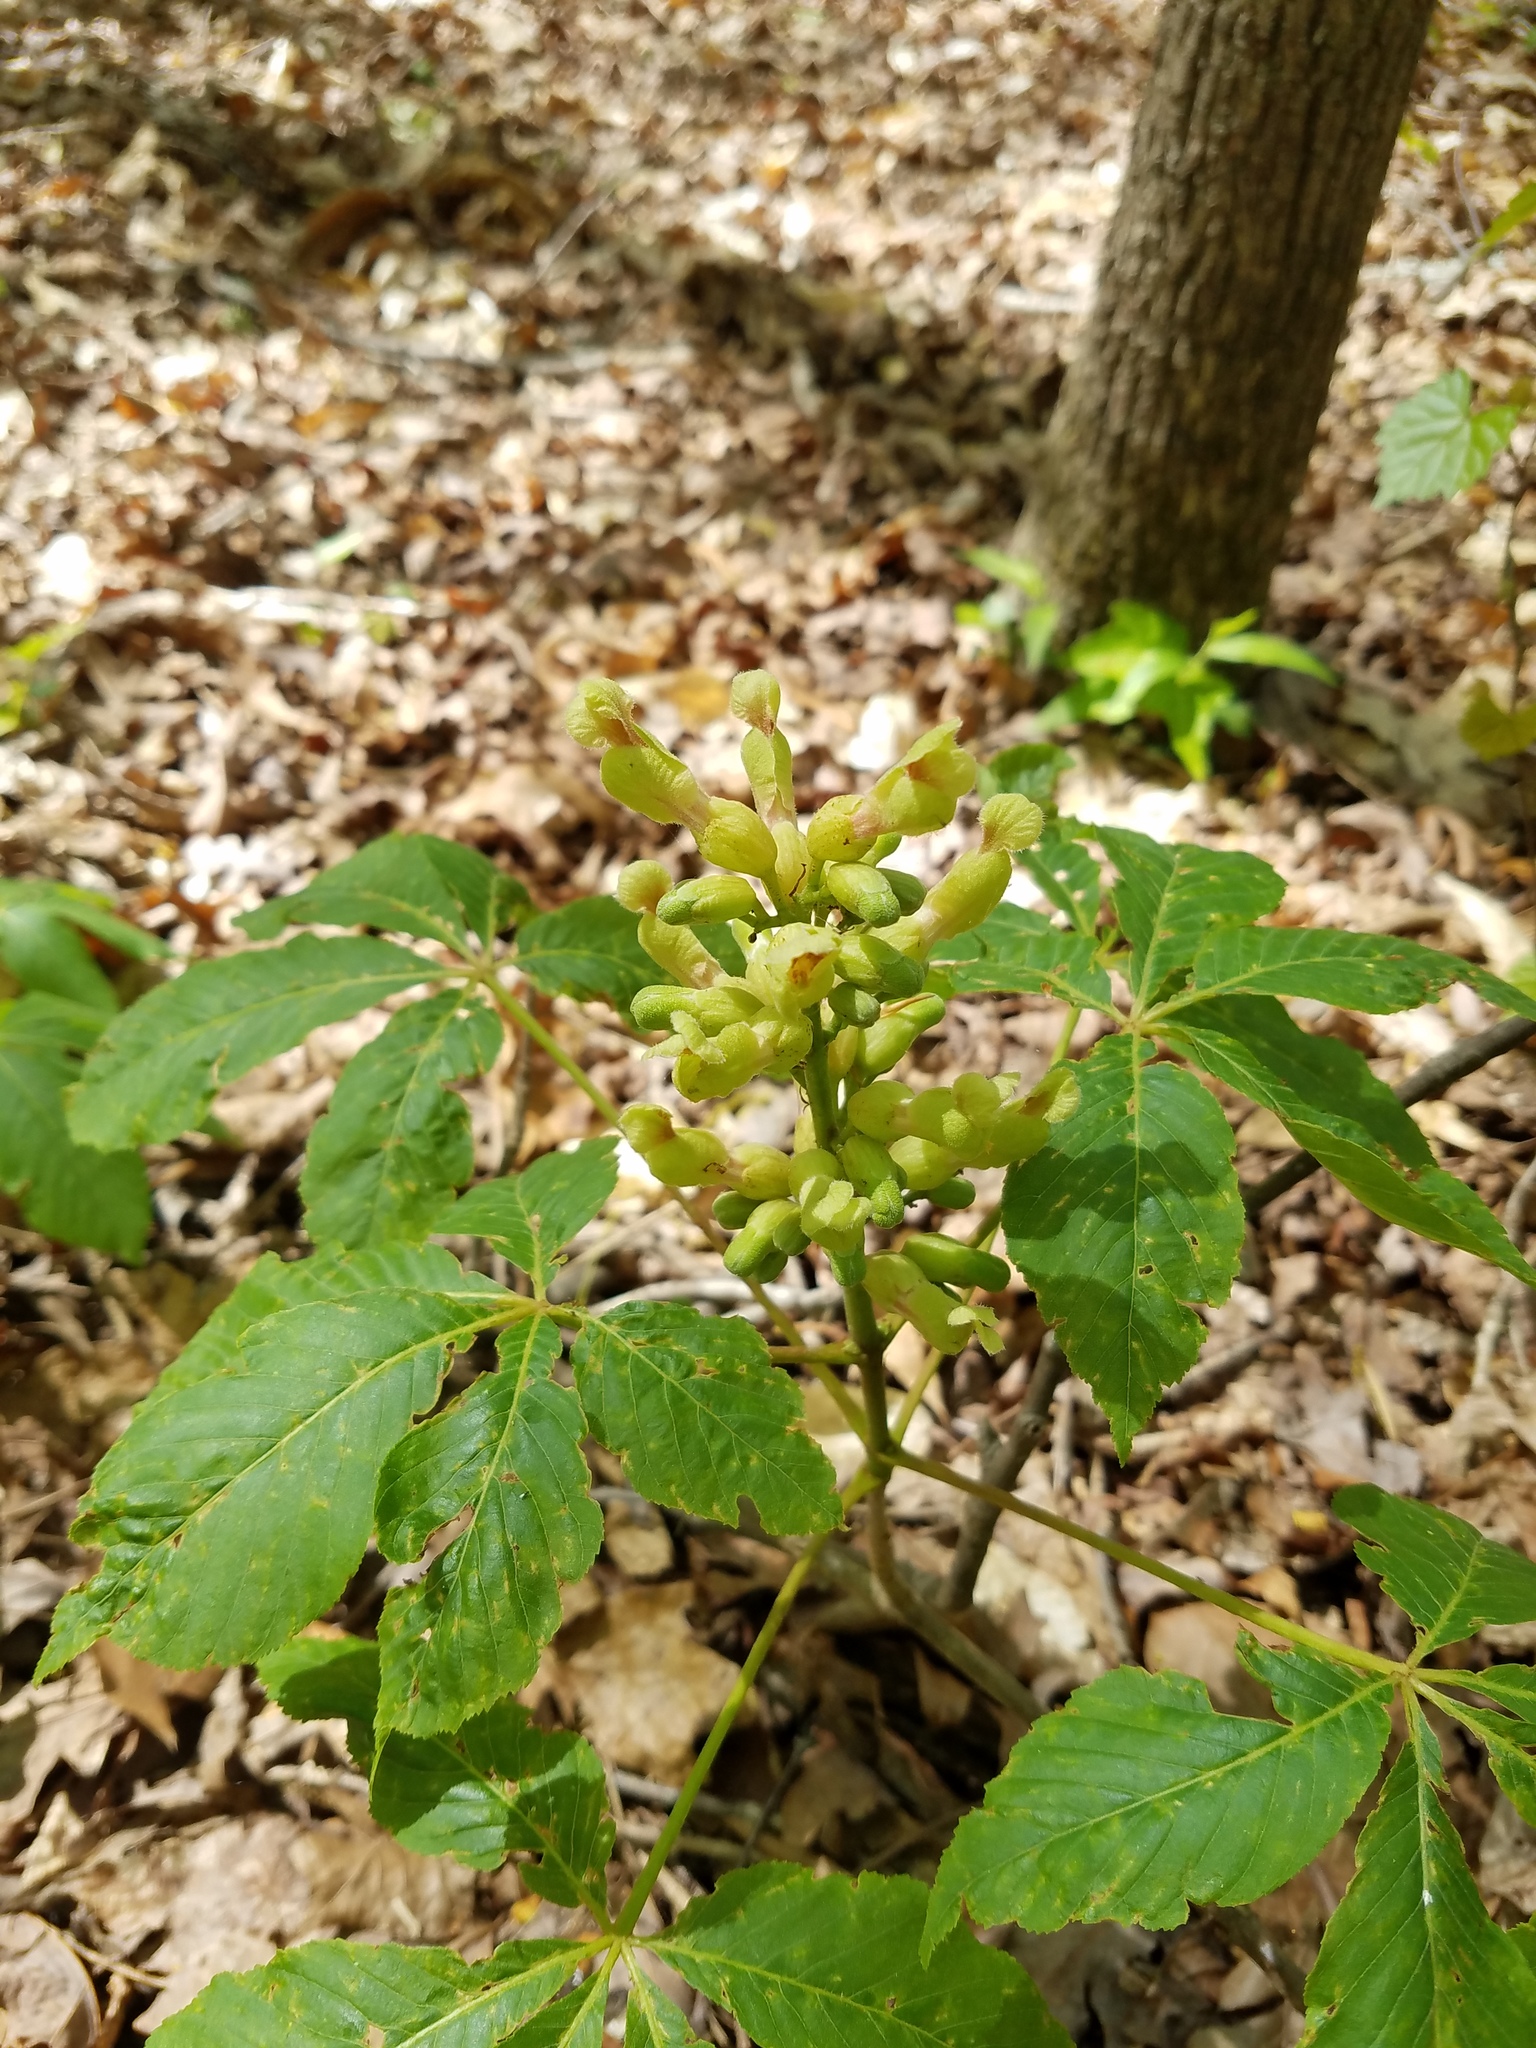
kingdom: Plantae
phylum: Tracheophyta
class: Magnoliopsida
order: Sapindales
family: Sapindaceae
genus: Aesculus
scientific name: Aesculus sylvatica
